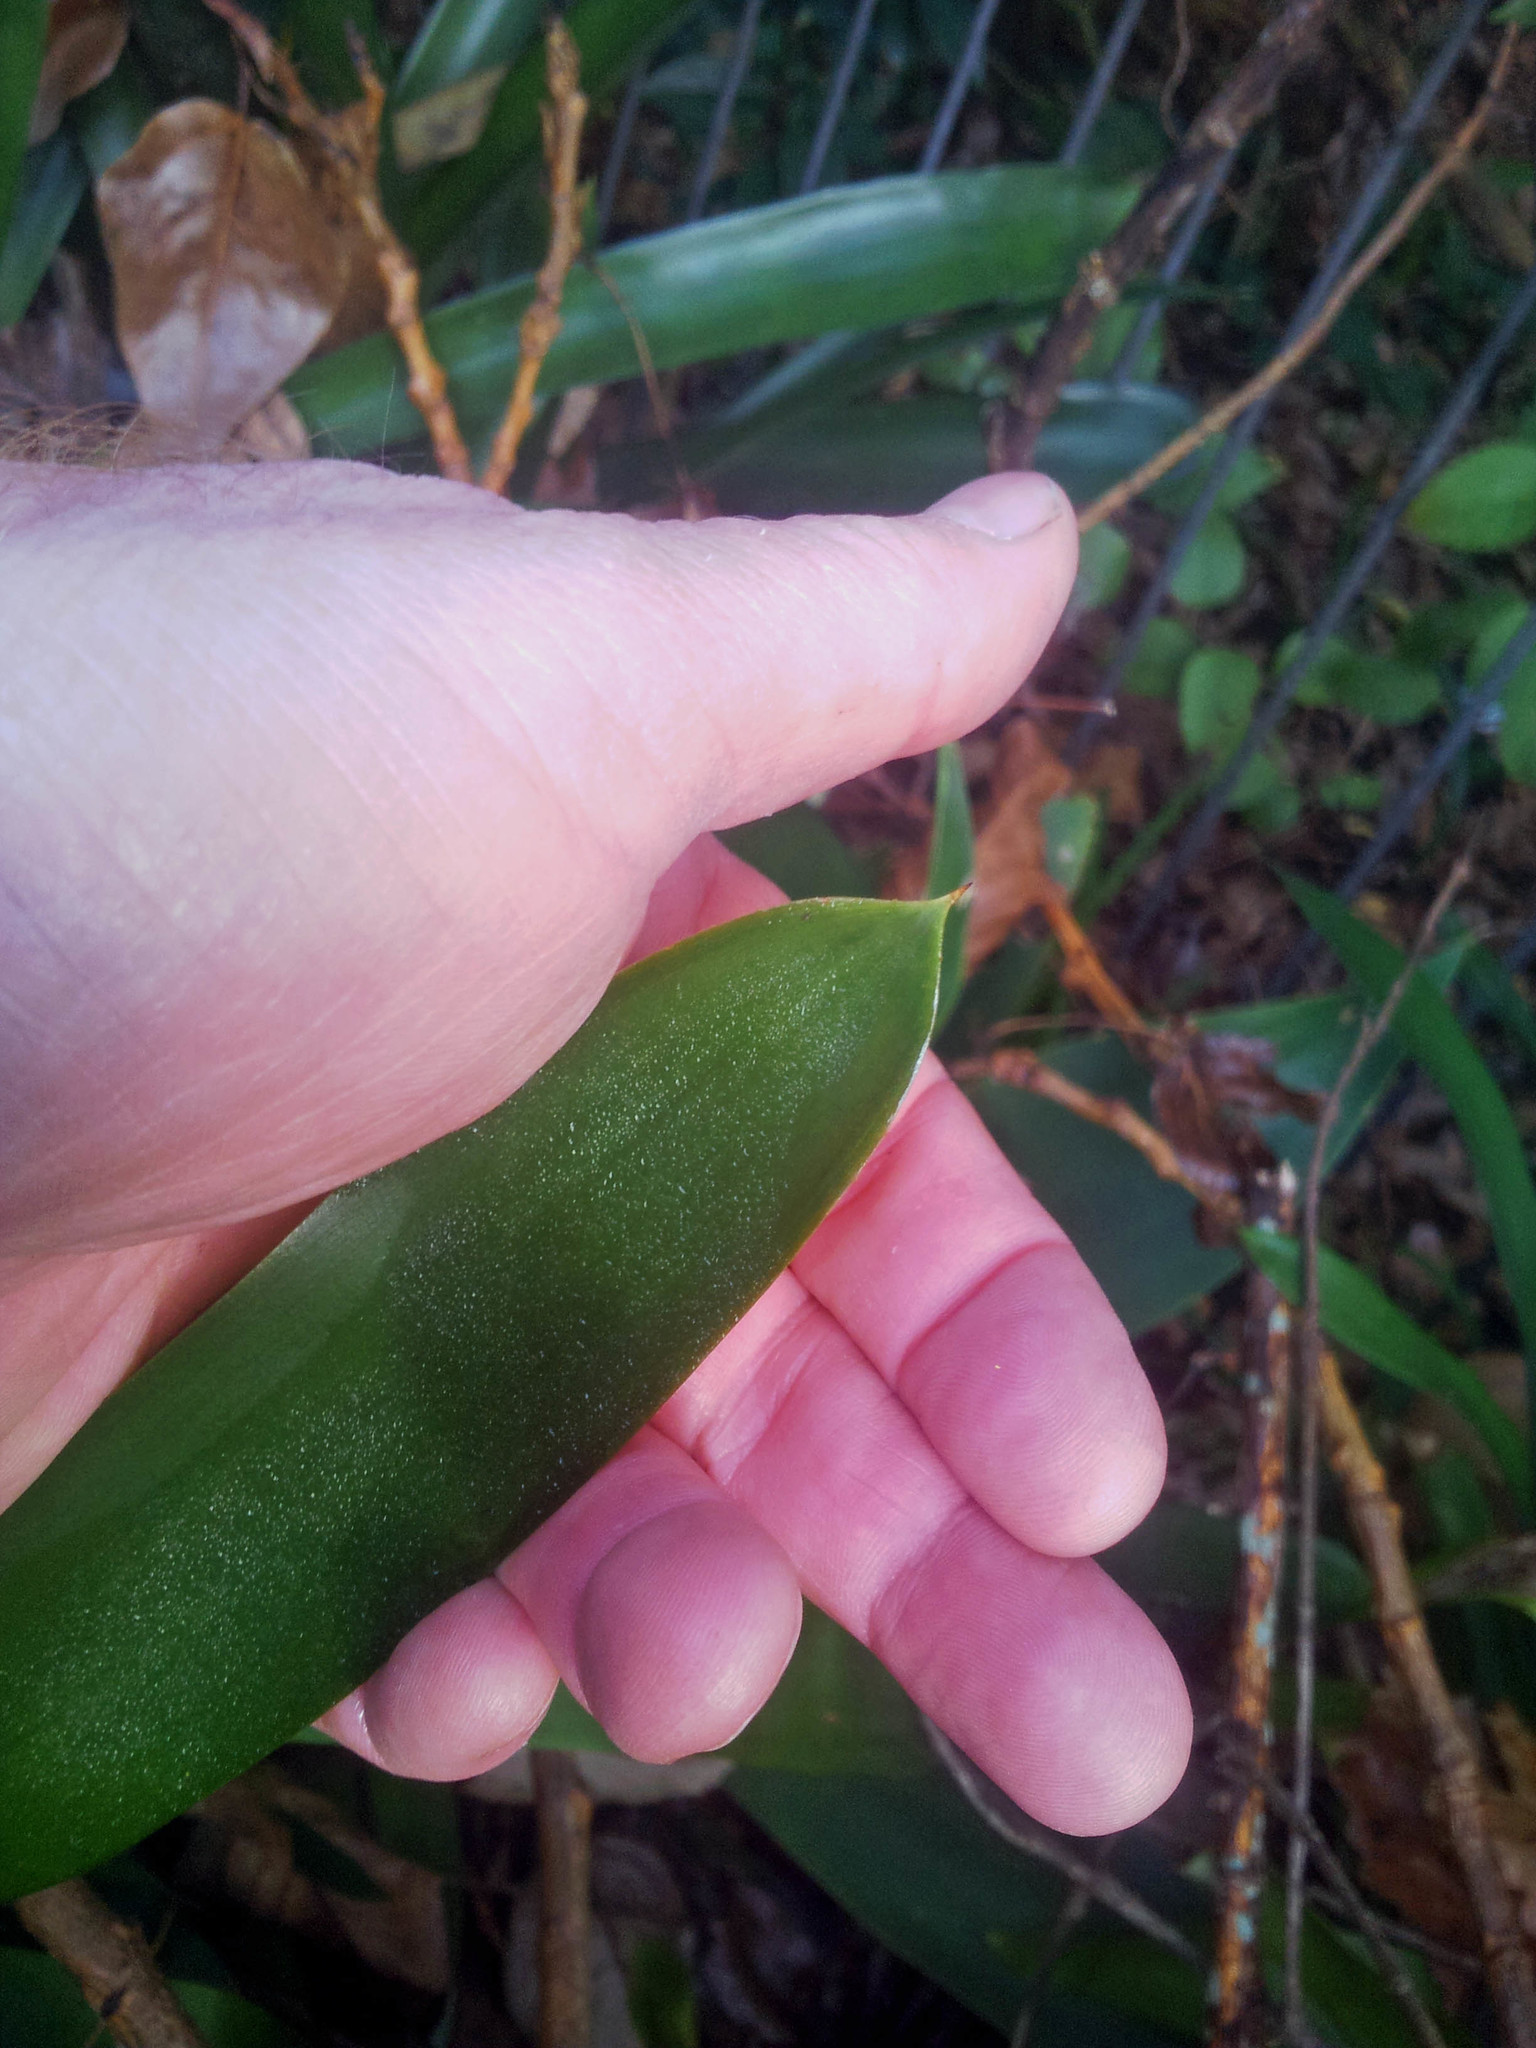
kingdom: Plantae
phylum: Tracheophyta
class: Liliopsida
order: Asparagales
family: Amaryllidaceae
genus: Clivia
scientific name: Clivia miniata
